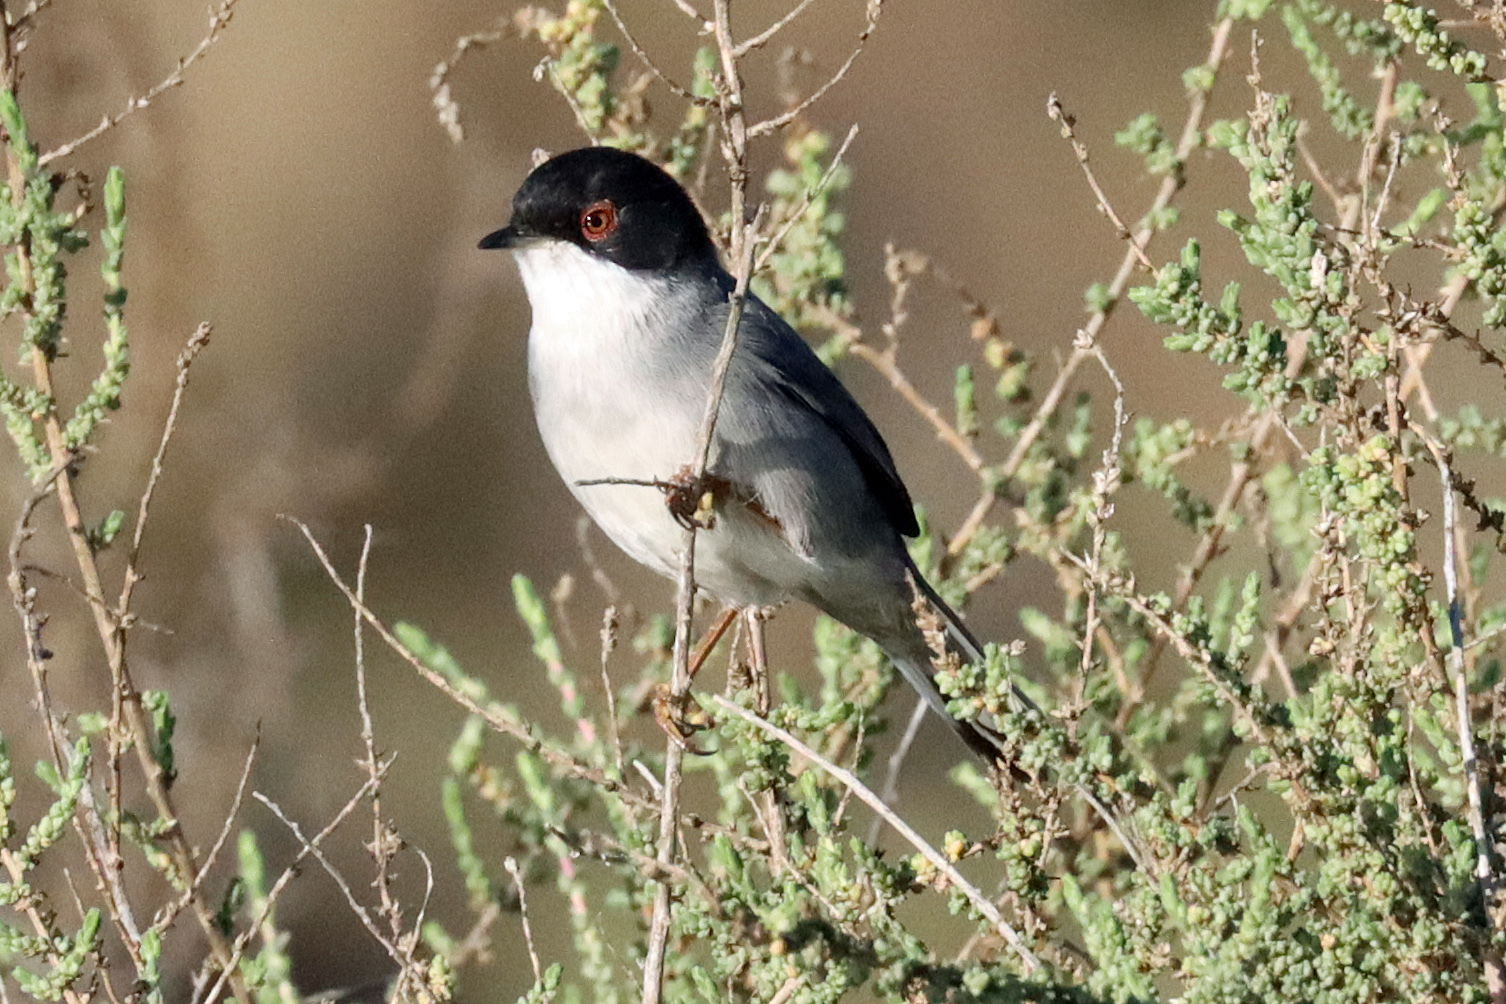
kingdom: Animalia
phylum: Chordata
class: Aves
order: Passeriformes
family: Sylviidae
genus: Curruca
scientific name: Curruca melanocephala
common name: Sardinian warbler
